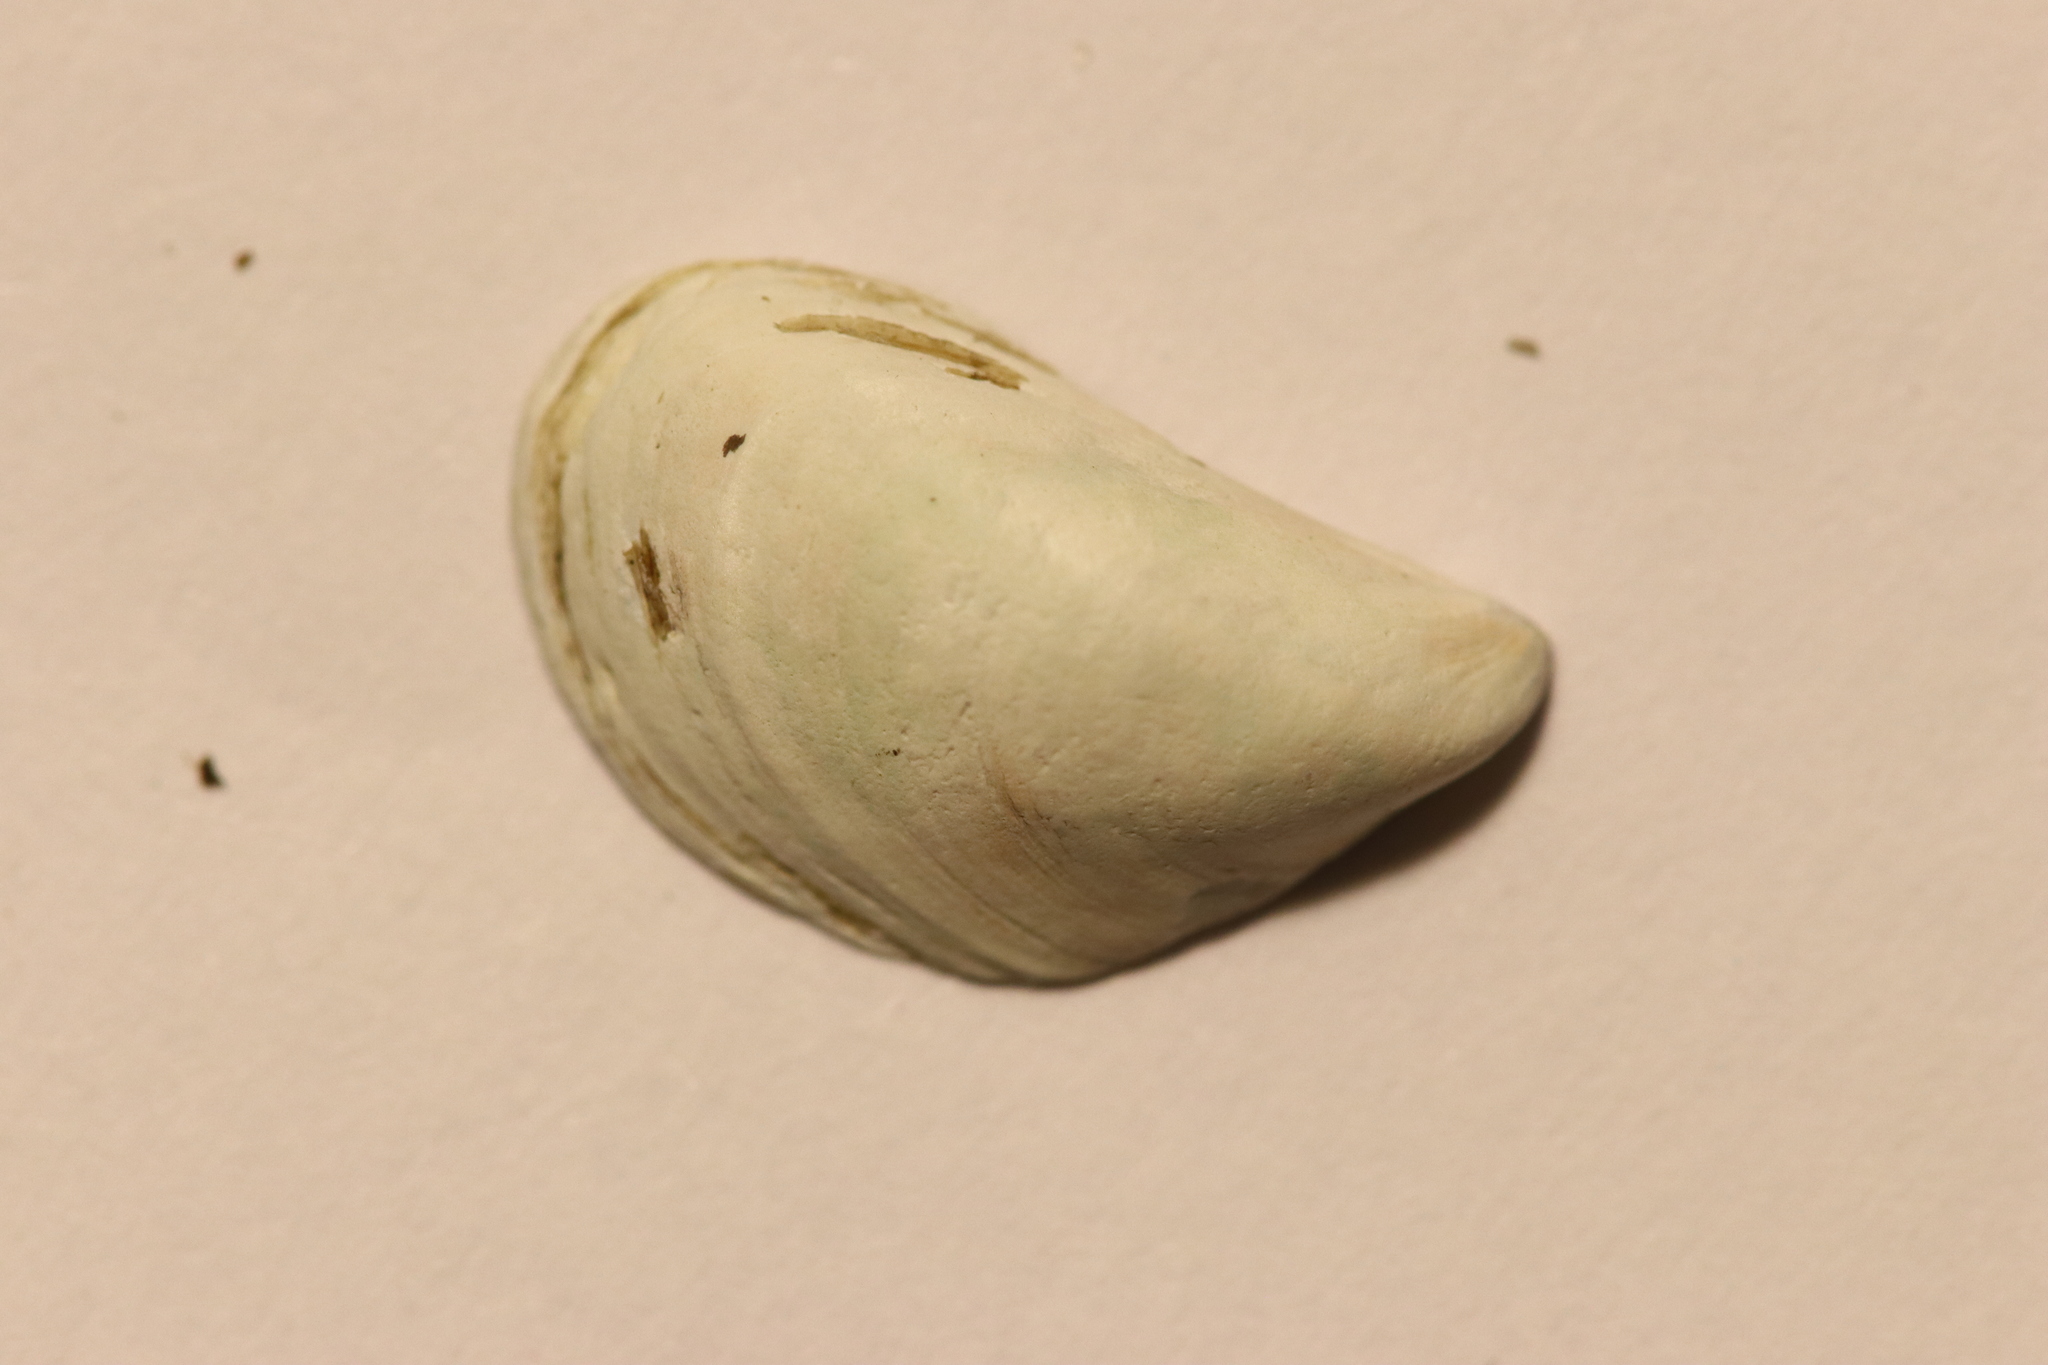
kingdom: Animalia
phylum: Mollusca
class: Bivalvia
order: Myida
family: Dreissenidae
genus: Dreissena
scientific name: Dreissena bugensis
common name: Quagga mussel
